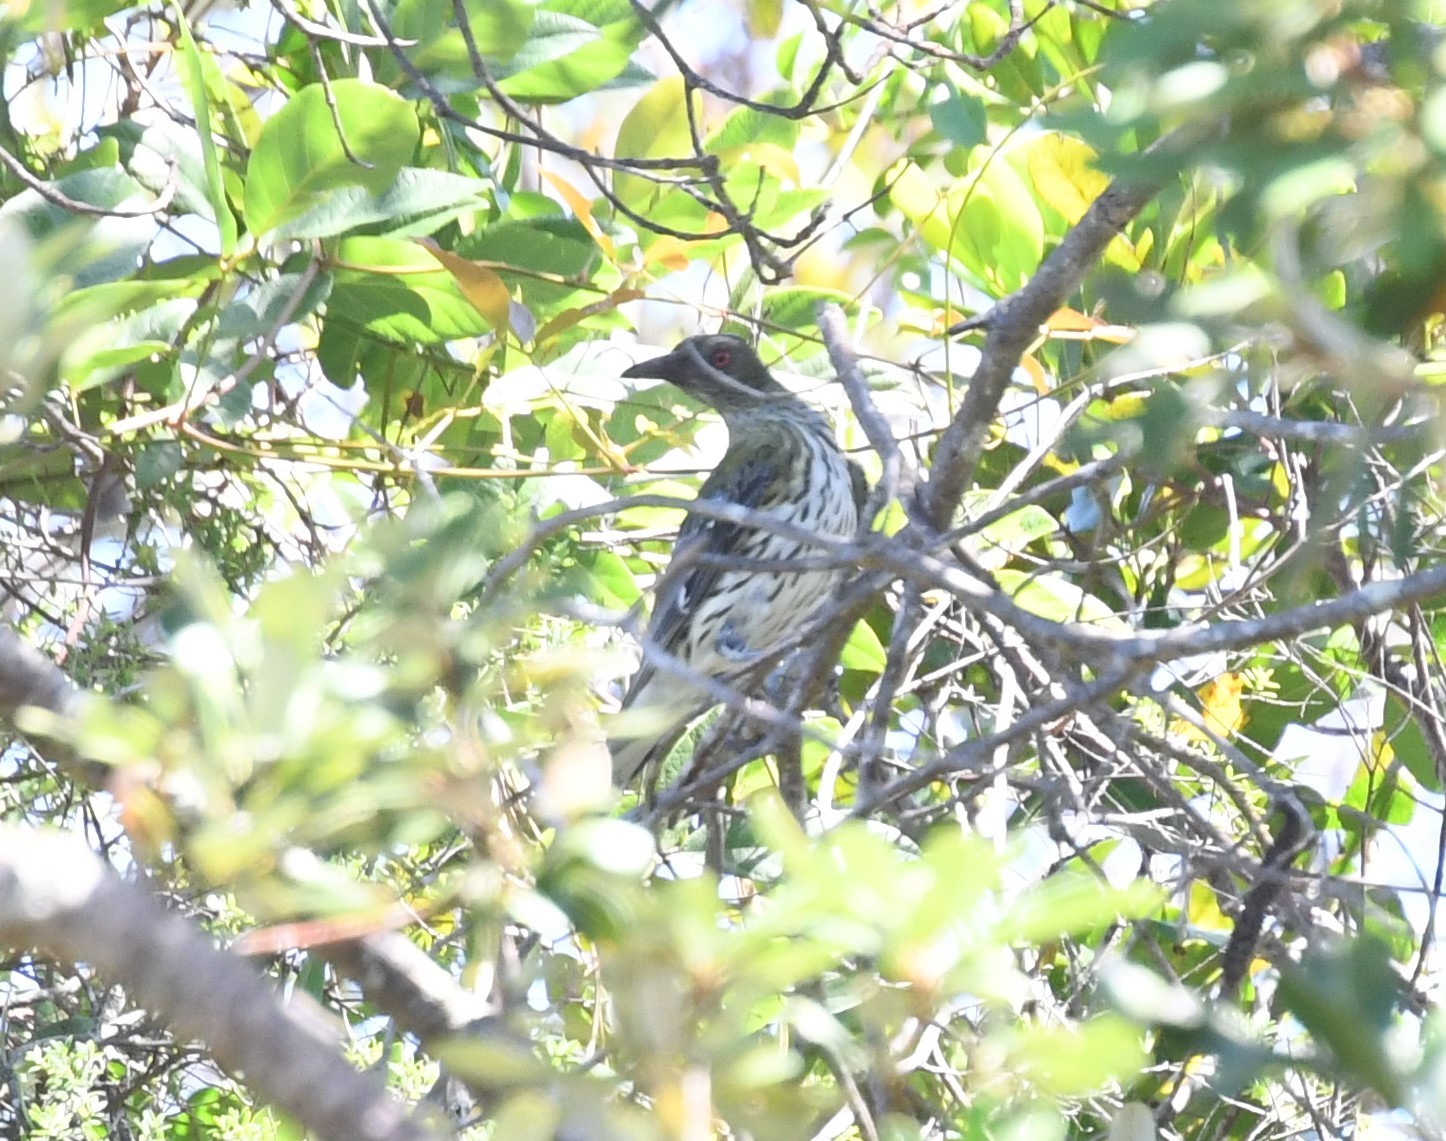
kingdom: Animalia
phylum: Chordata
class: Aves
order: Passeriformes
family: Oriolidae
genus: Oriolus
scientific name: Oriolus sagittatus
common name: Olive-backed oriole
